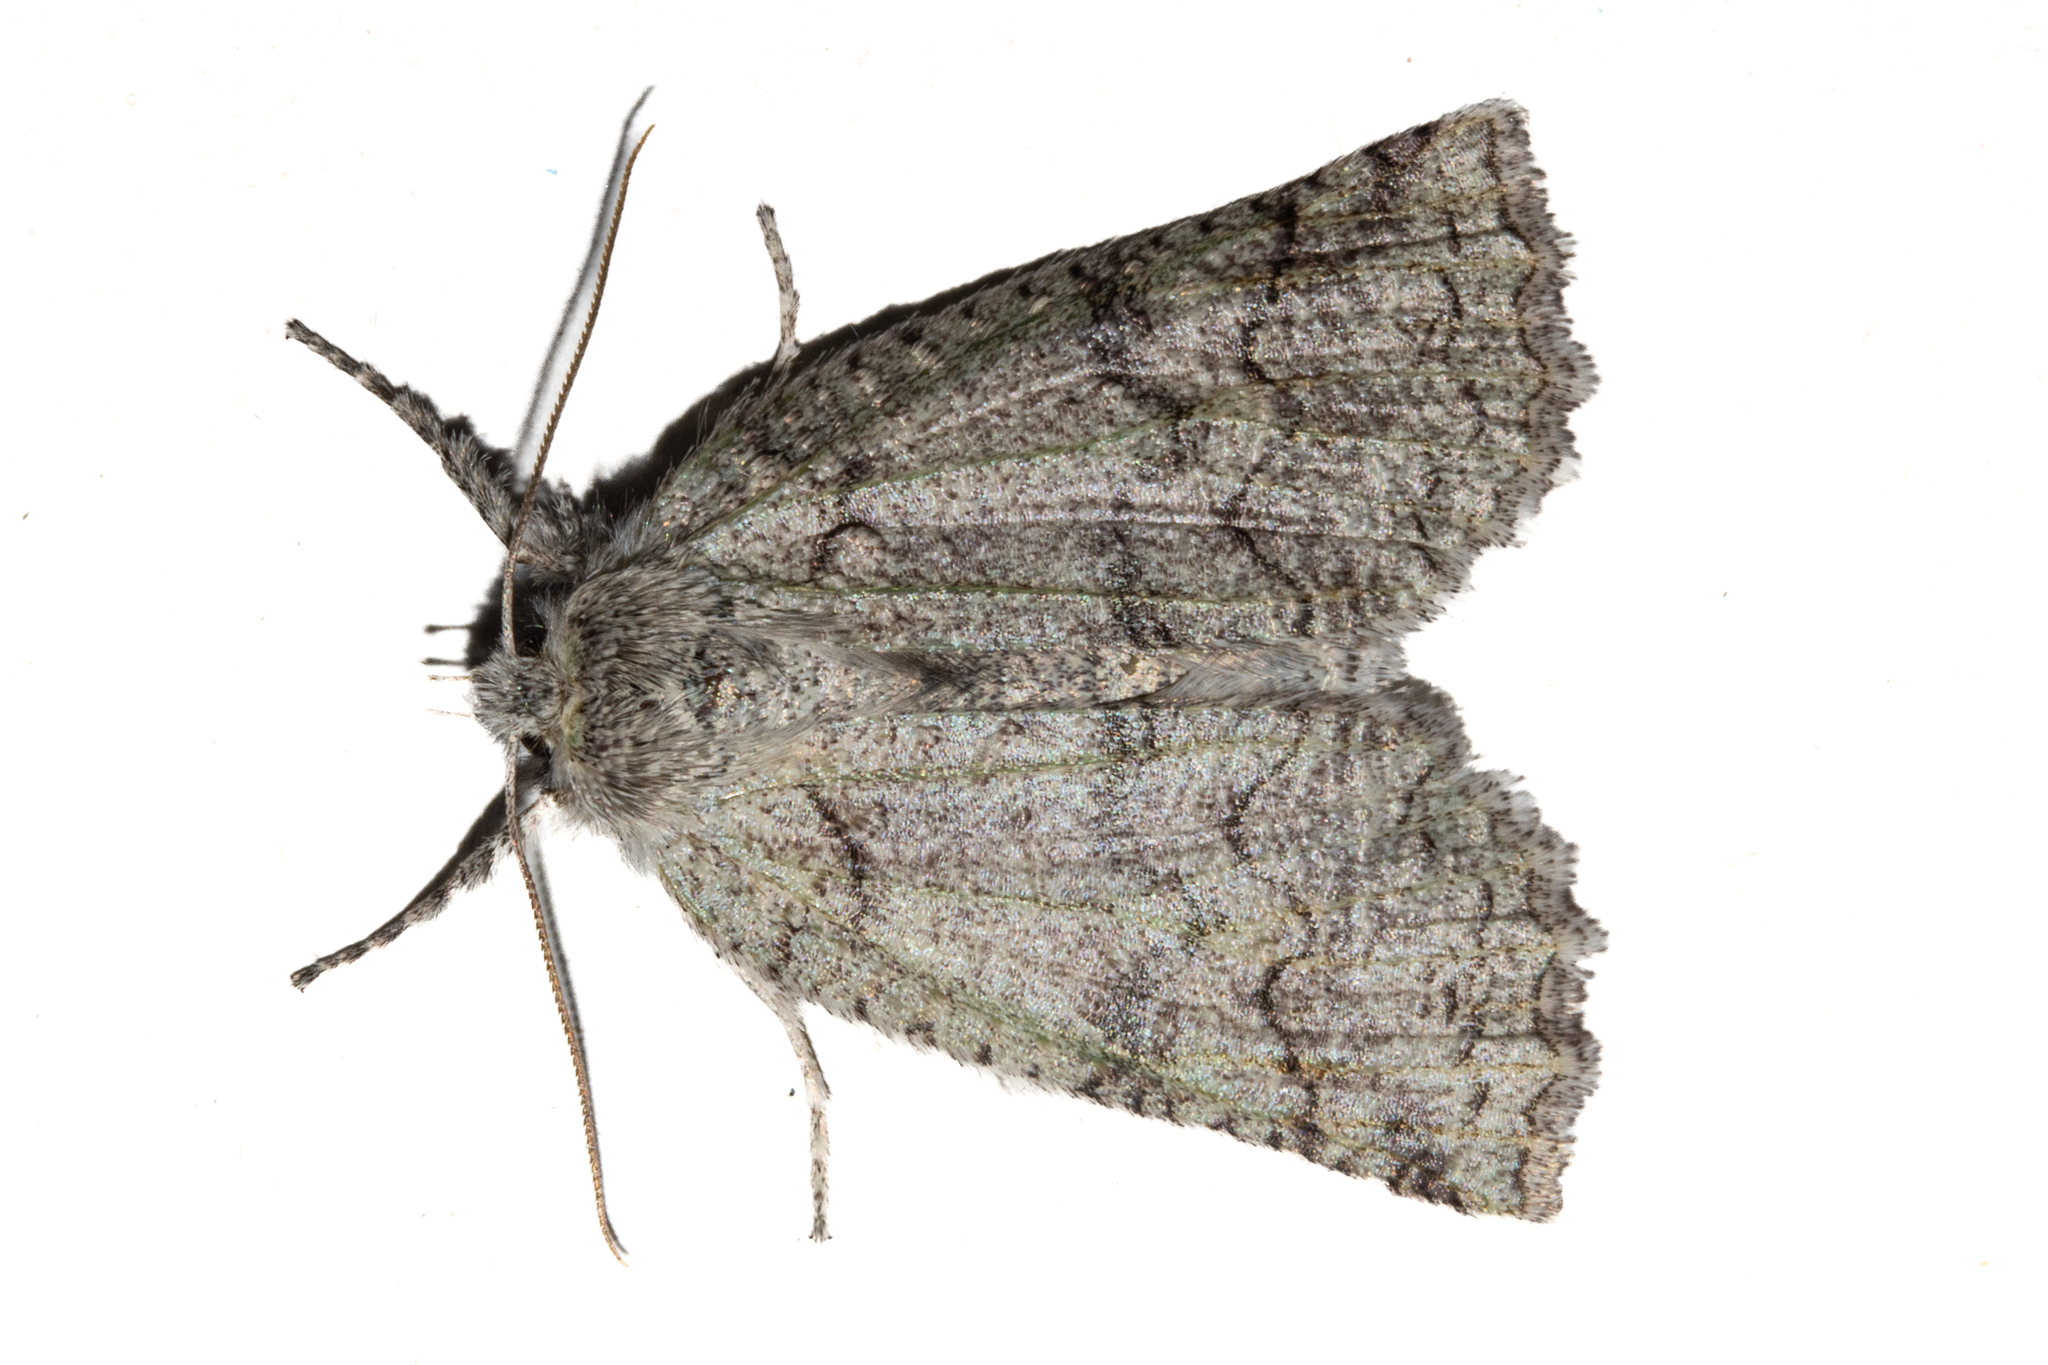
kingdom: Animalia
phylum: Arthropoda
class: Insecta
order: Lepidoptera
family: Geometridae
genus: Declana
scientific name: Declana floccosa
